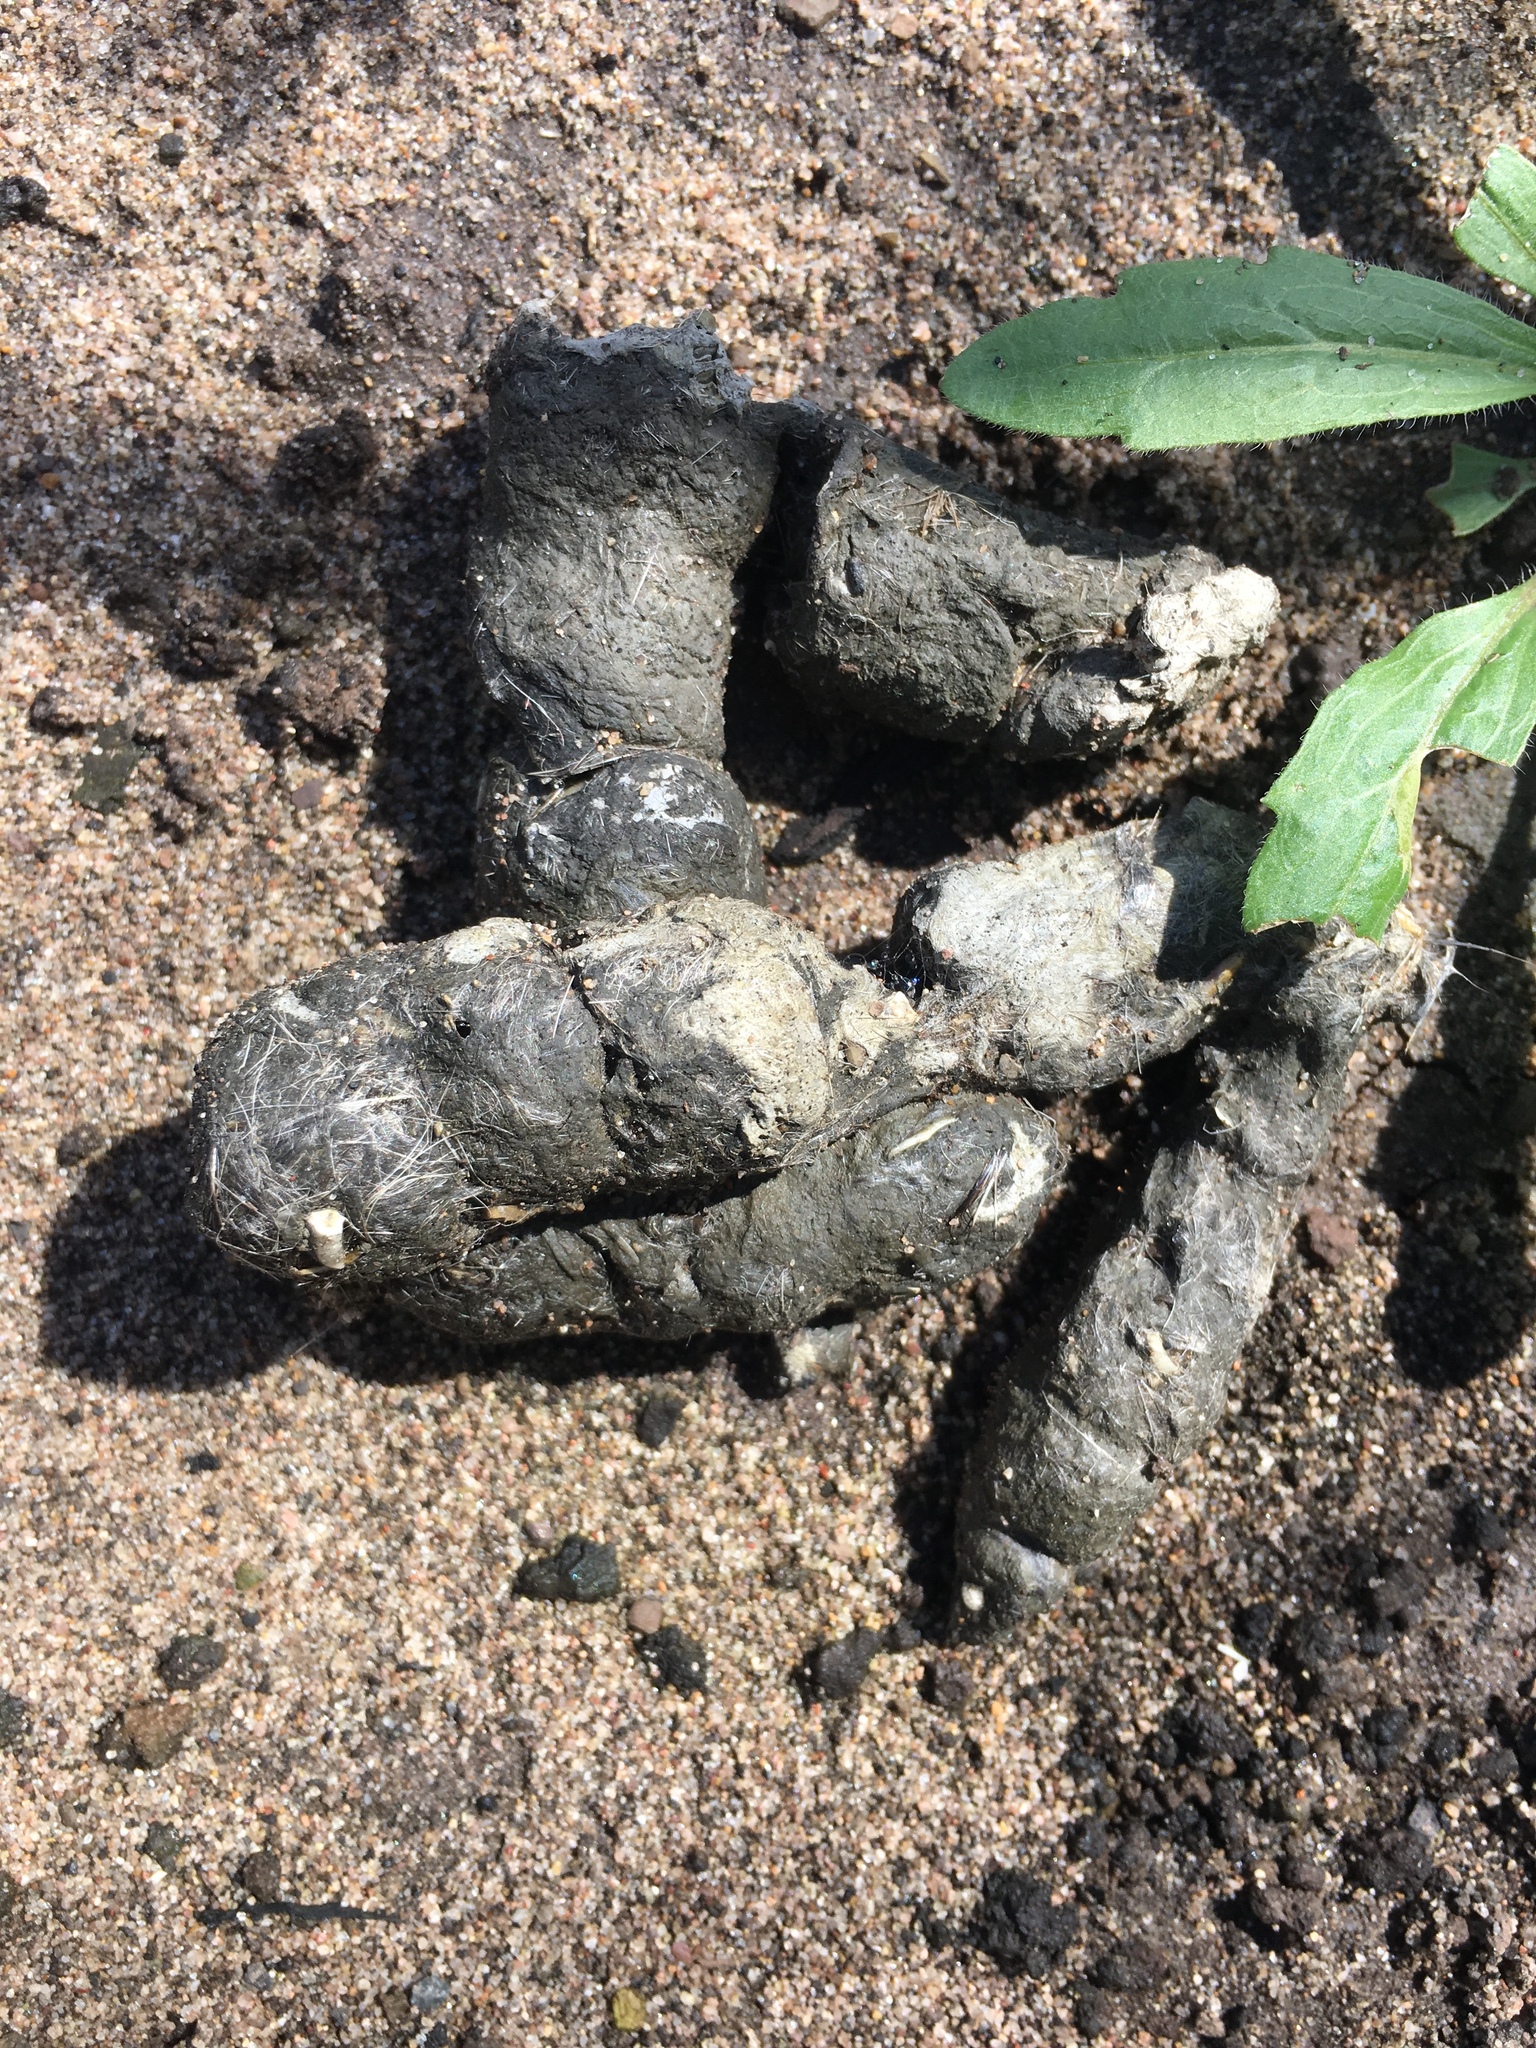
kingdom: Animalia
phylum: Chordata
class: Mammalia
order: Carnivora
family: Felidae
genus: Lynx
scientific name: Lynx rufus
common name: Bobcat
